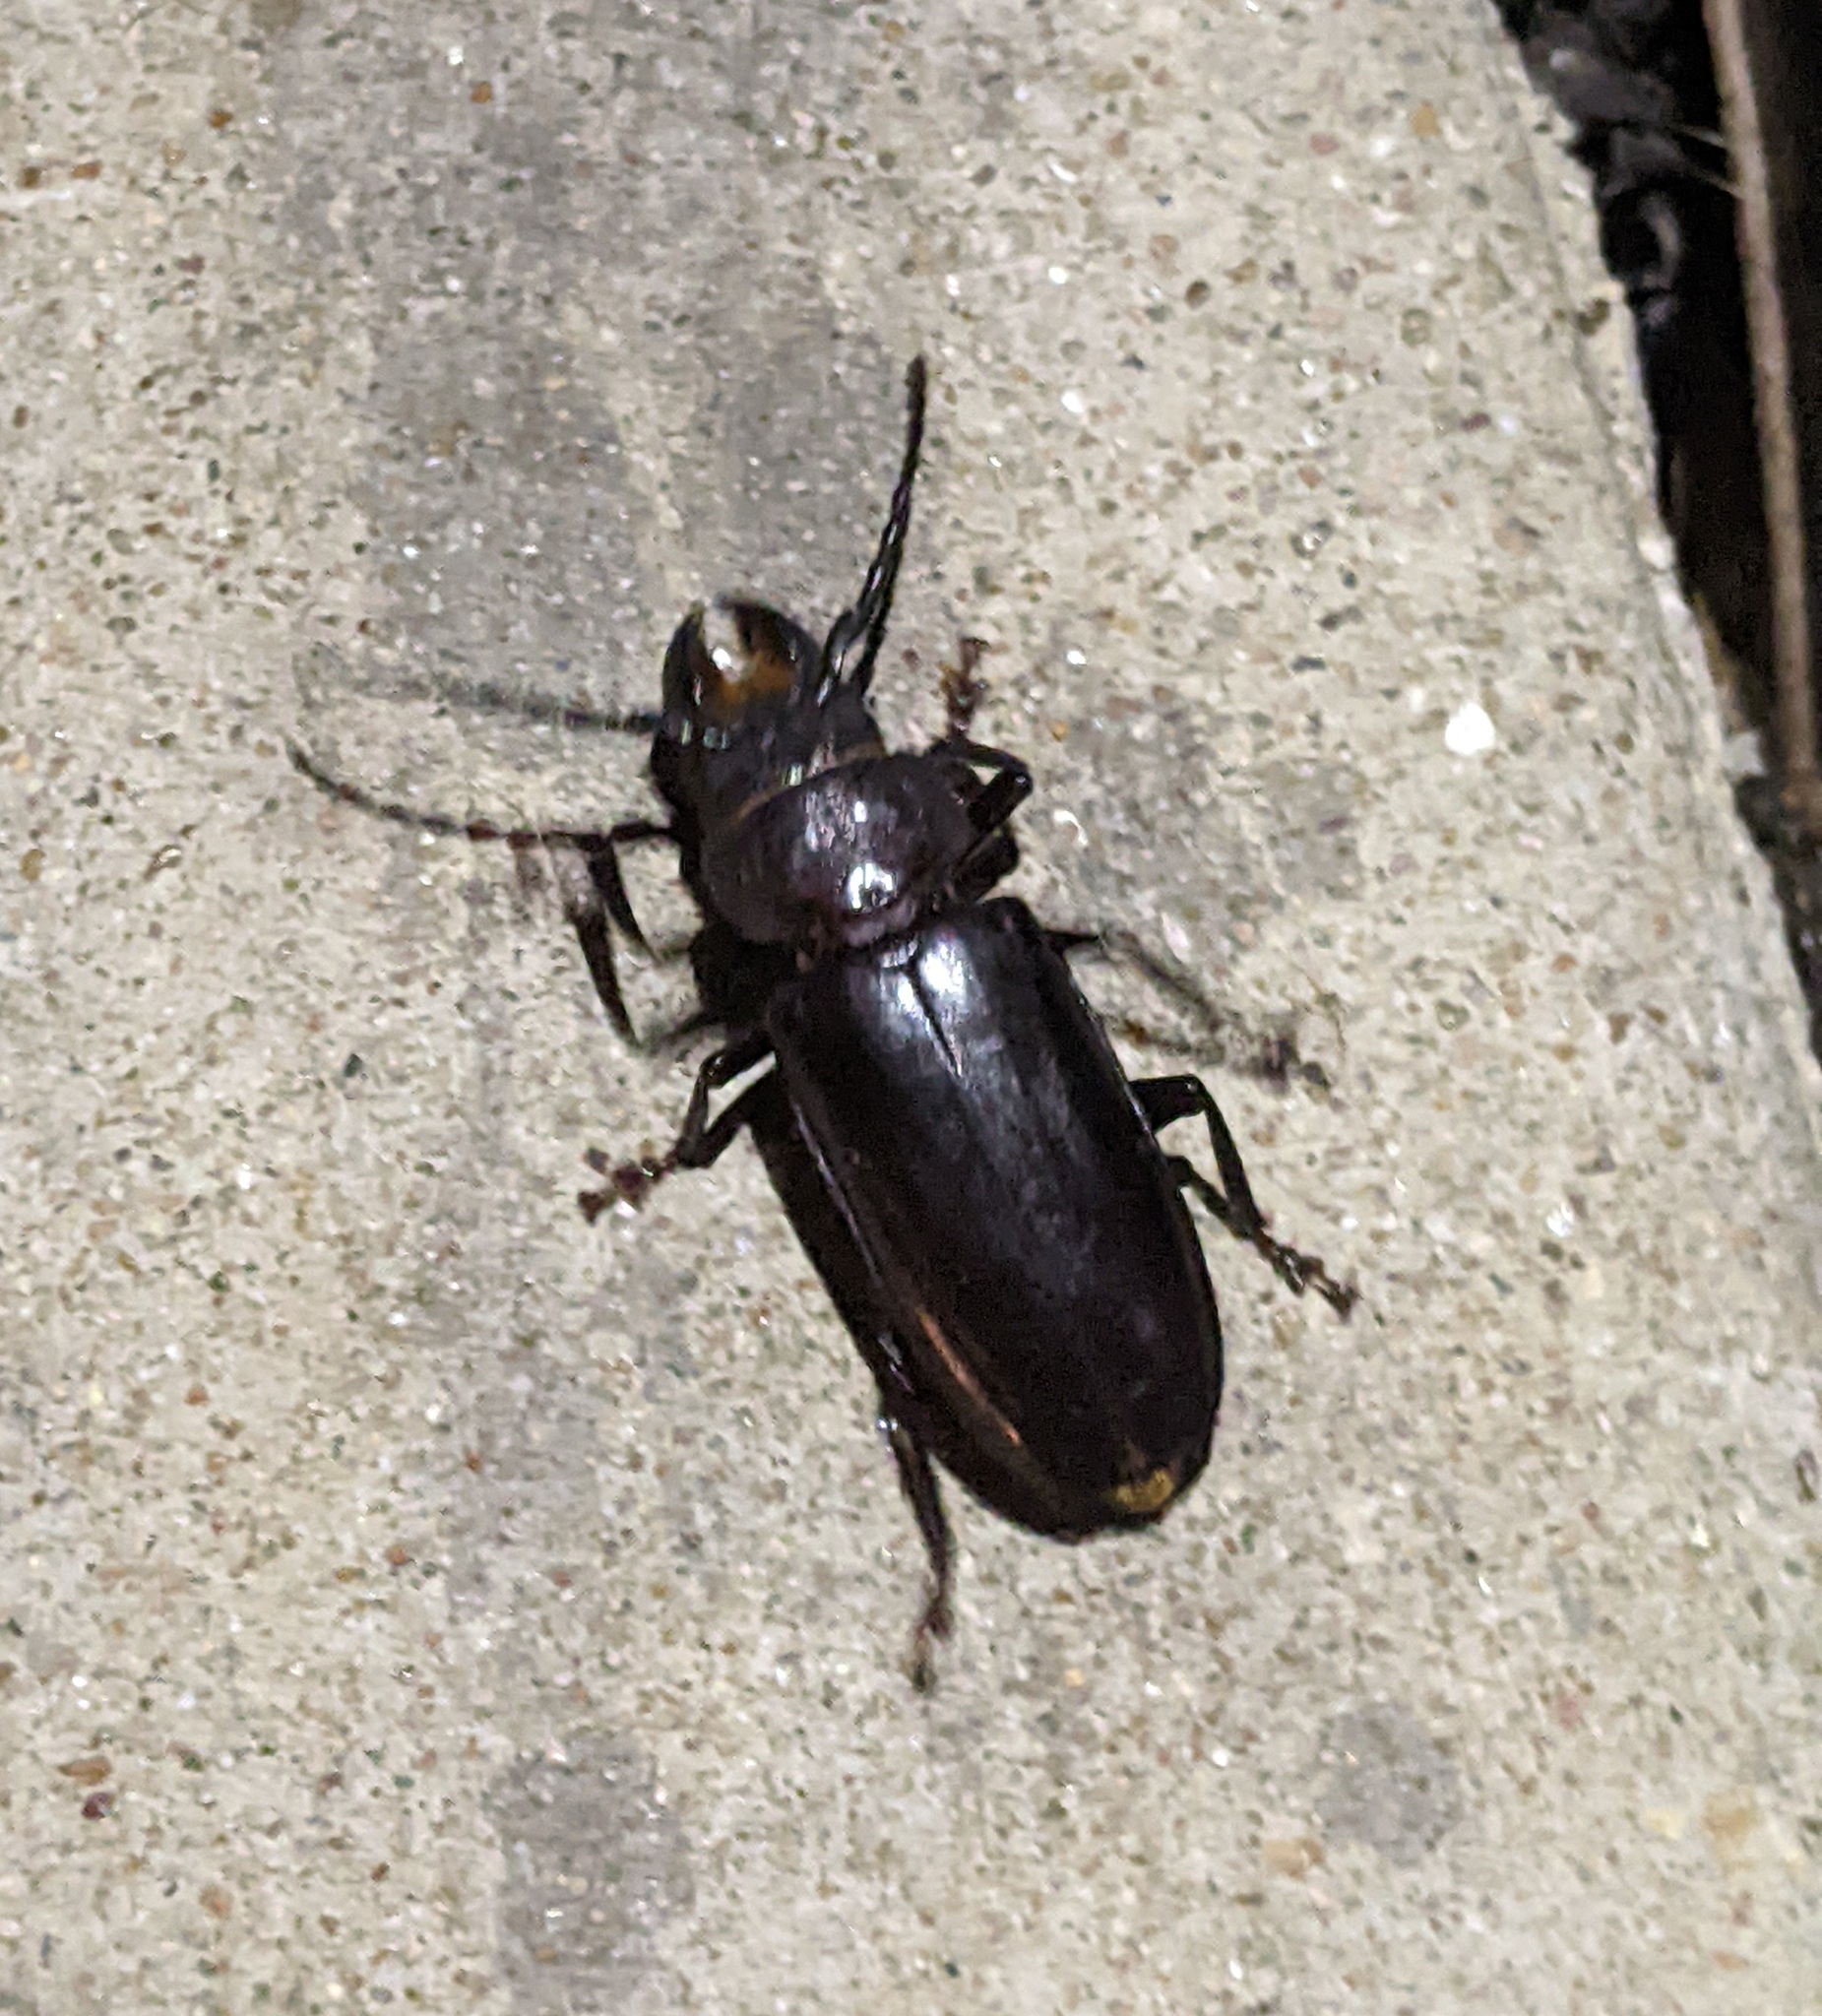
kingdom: Animalia
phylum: Arthropoda
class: Insecta
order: Coleoptera
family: Cerambycidae
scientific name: Cerambycidae
